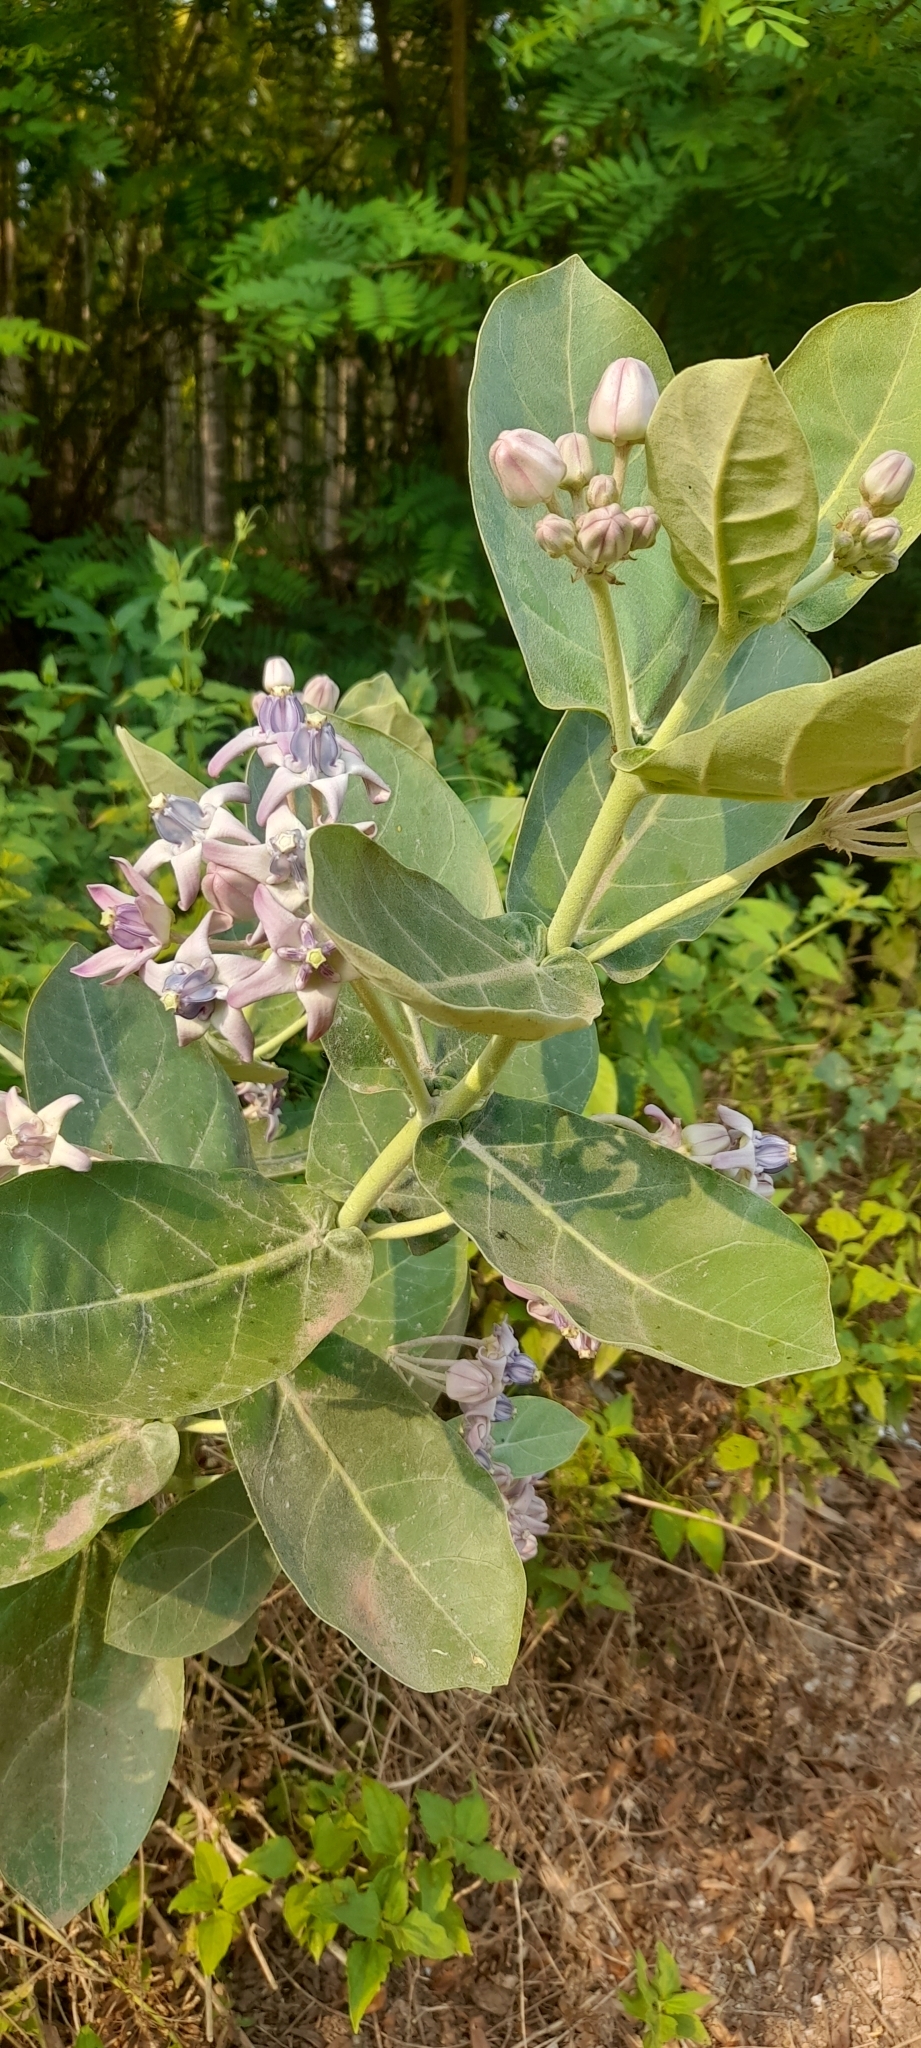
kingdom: Plantae
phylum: Tracheophyta
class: Magnoliopsida
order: Gentianales
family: Apocynaceae
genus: Calotropis
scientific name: Calotropis gigantea
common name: Crown flower
